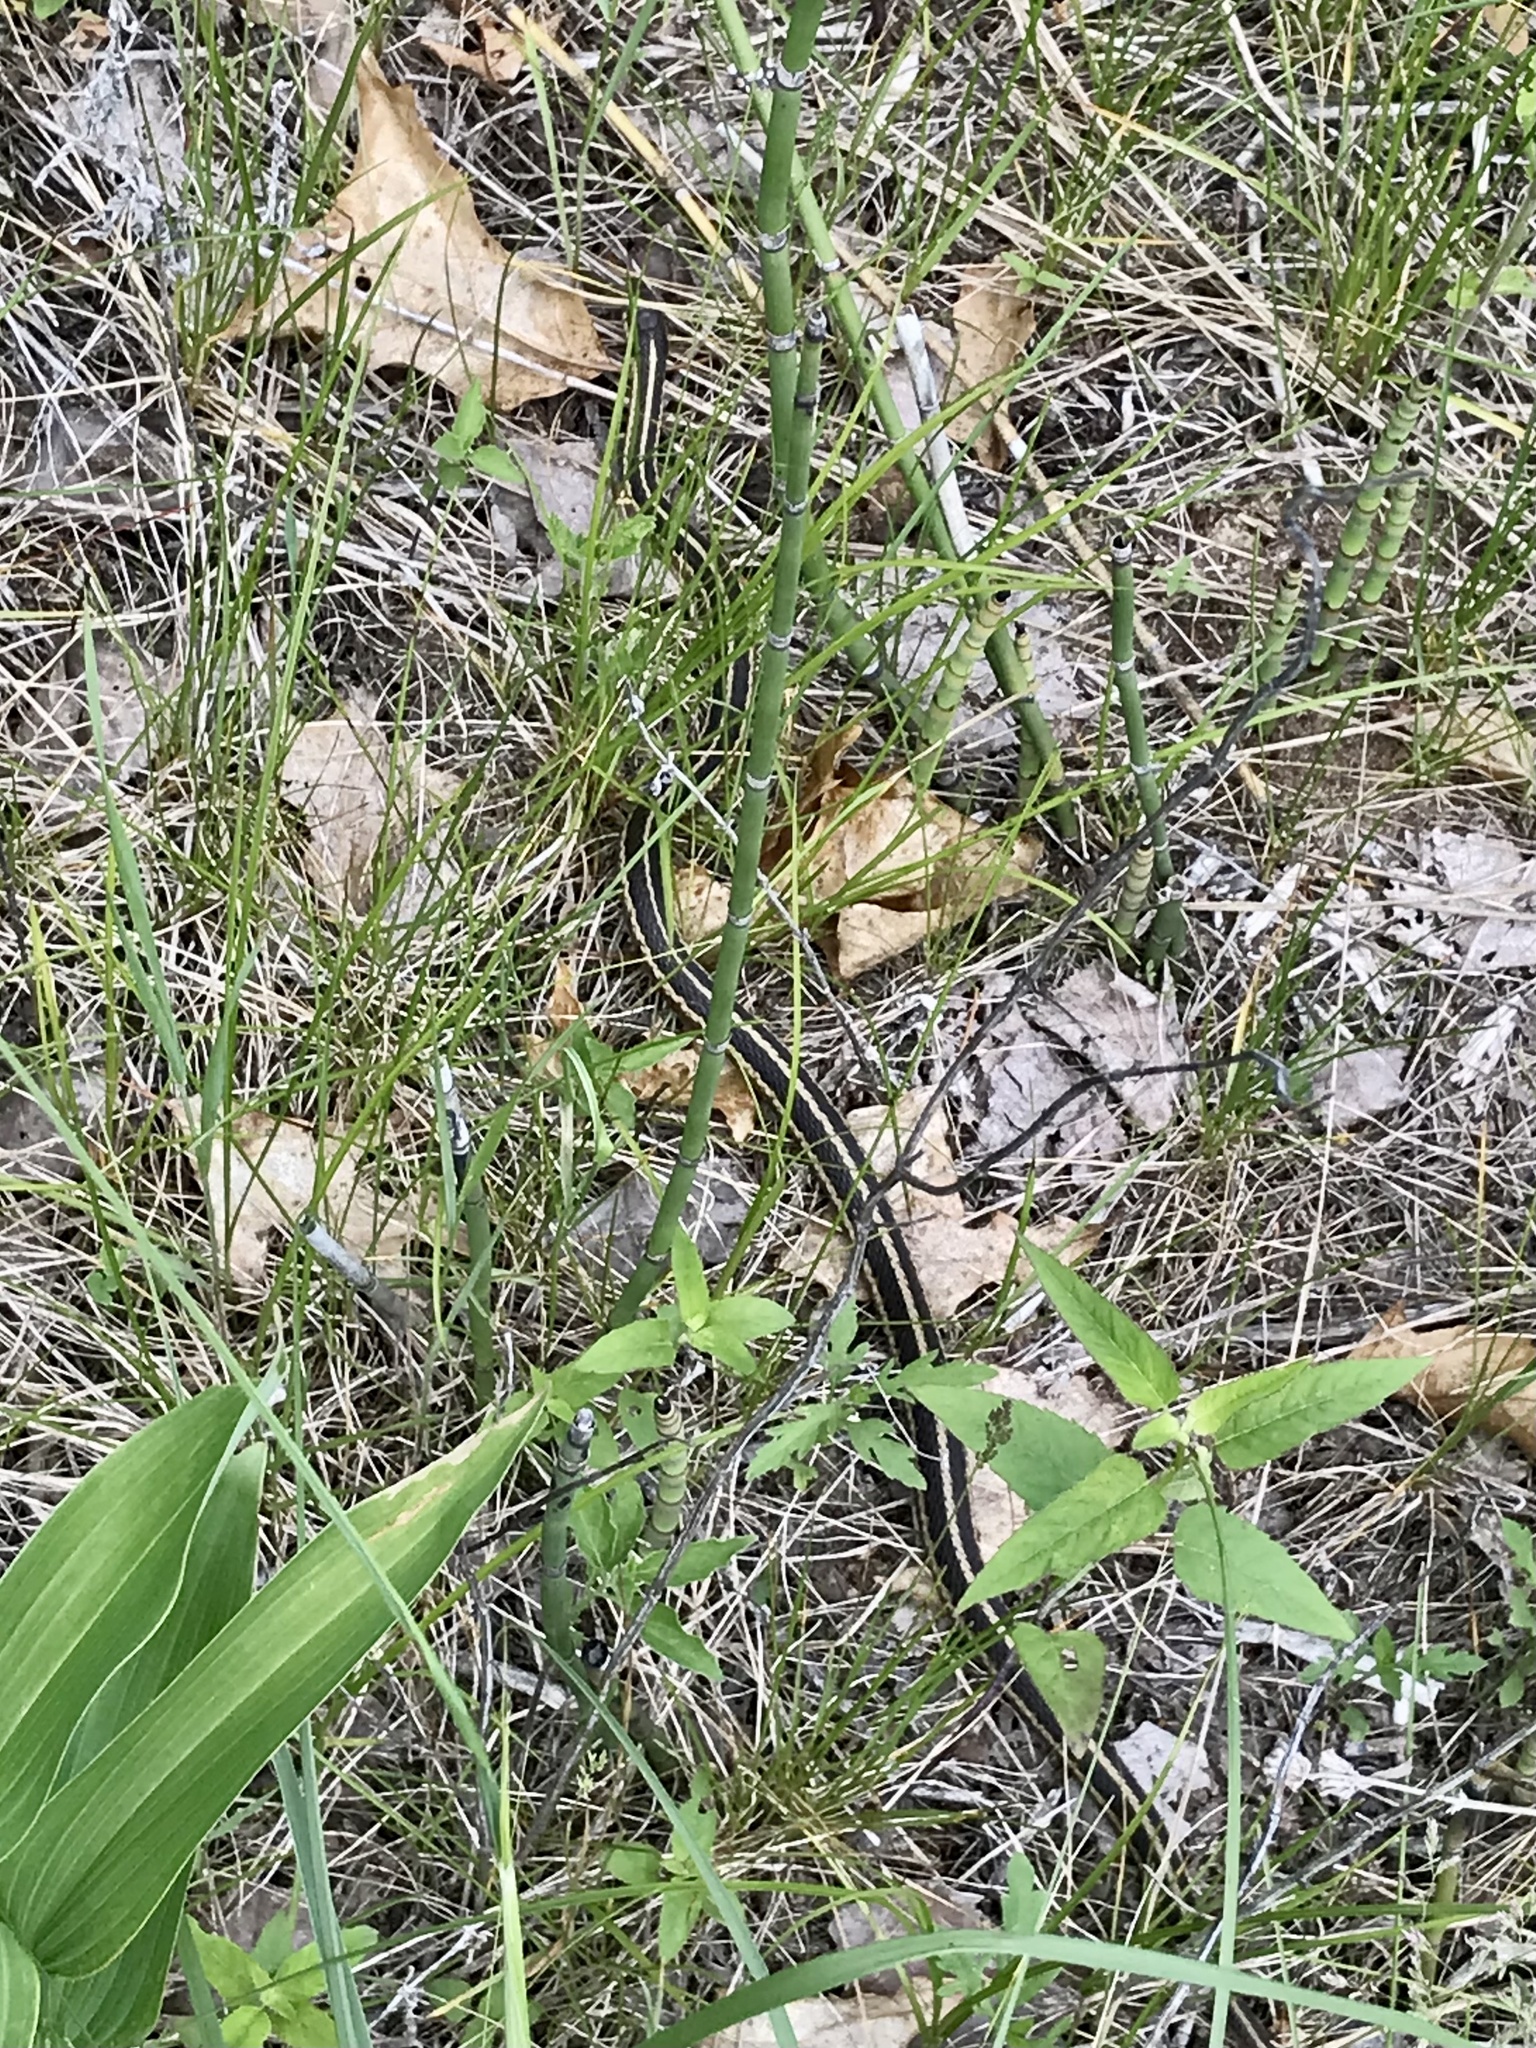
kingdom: Animalia
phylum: Chordata
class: Squamata
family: Colubridae
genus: Thamnophis
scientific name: Thamnophis sirtalis
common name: Common garter snake
